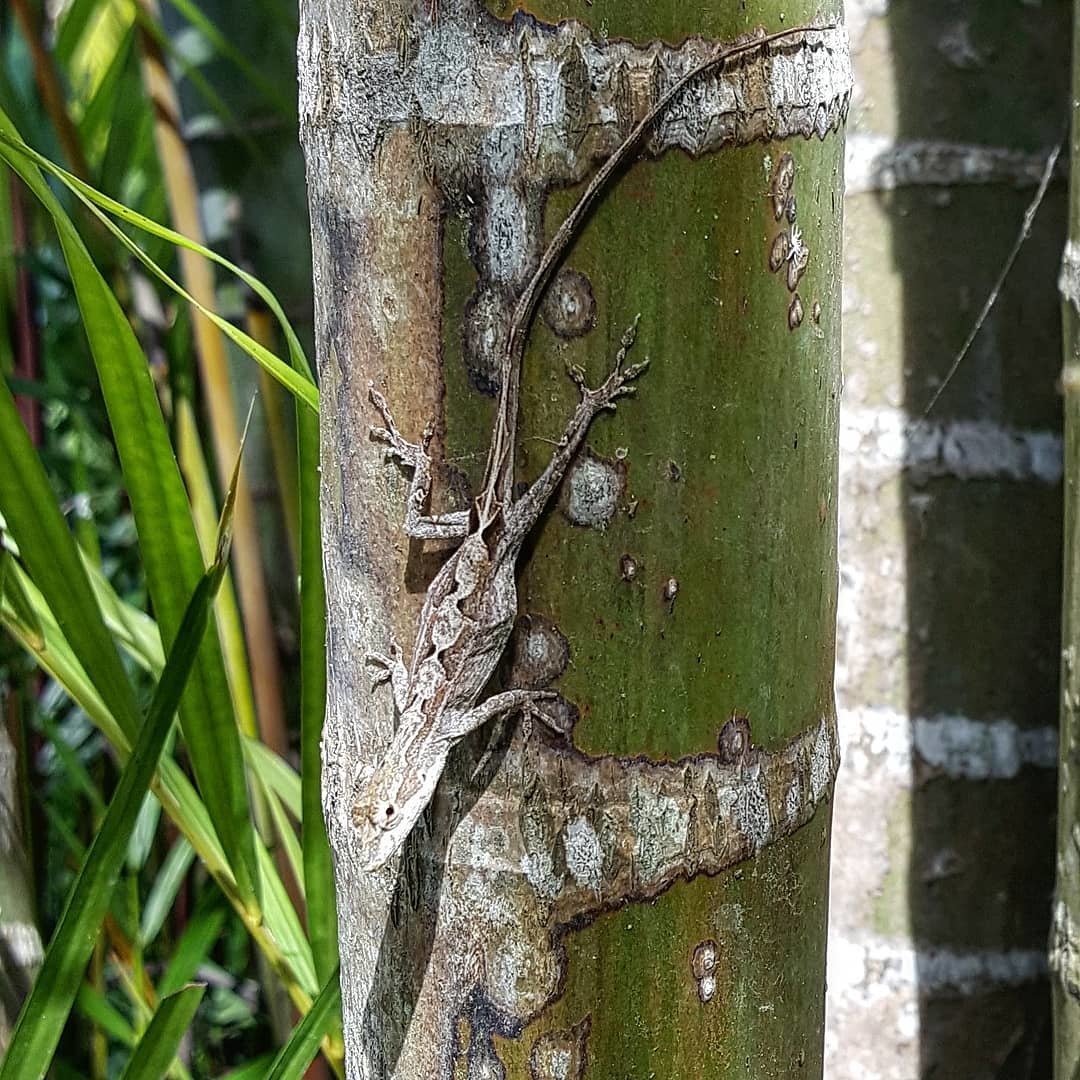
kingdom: Animalia
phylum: Chordata
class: Squamata
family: Dactyloidae
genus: Anolis
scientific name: Anolis laeviventris
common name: White anole
